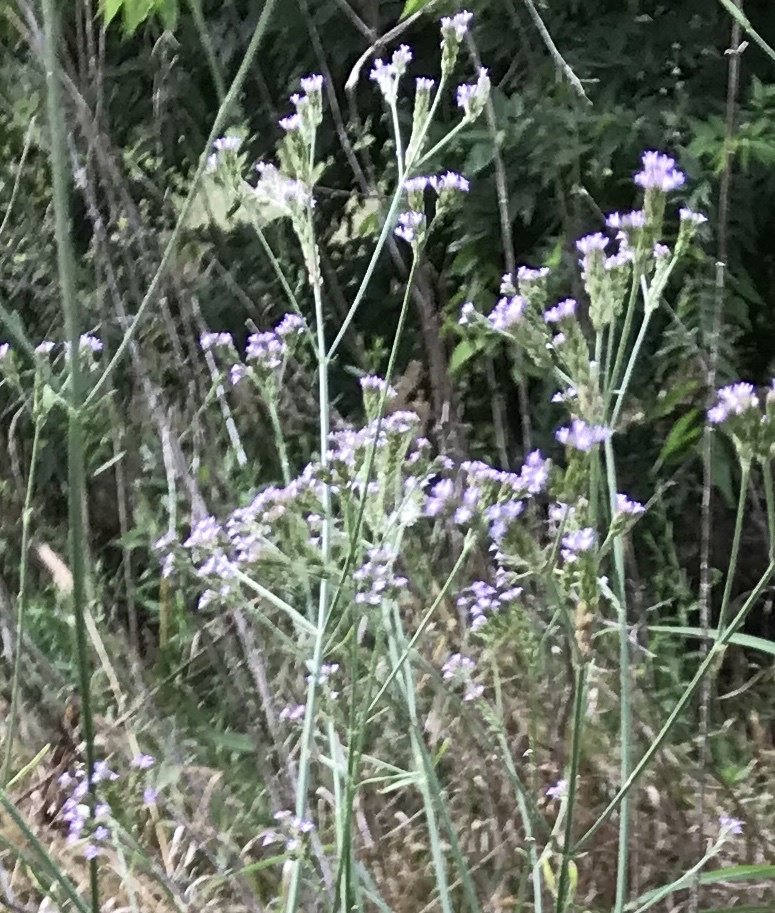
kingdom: Plantae
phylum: Tracheophyta
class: Magnoliopsida
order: Lamiales
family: Verbenaceae
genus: Verbena
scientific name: Verbena brasiliensis
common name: Brazilian vervain
